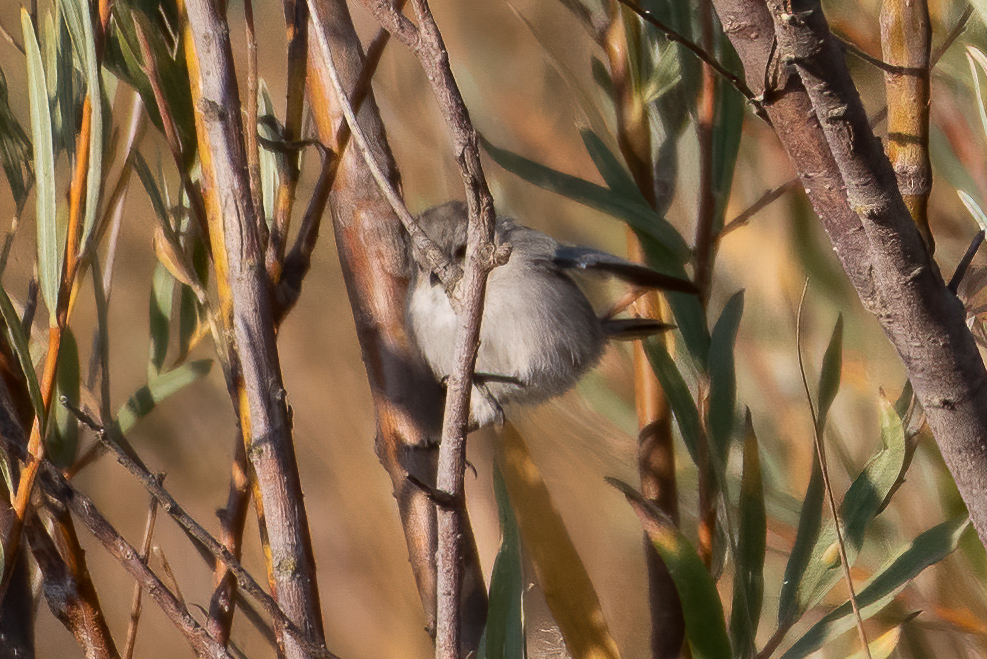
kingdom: Animalia
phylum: Chordata
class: Aves
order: Passeriformes
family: Aegithalidae
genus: Psaltriparus
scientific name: Psaltriparus minimus
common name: American bushtit
